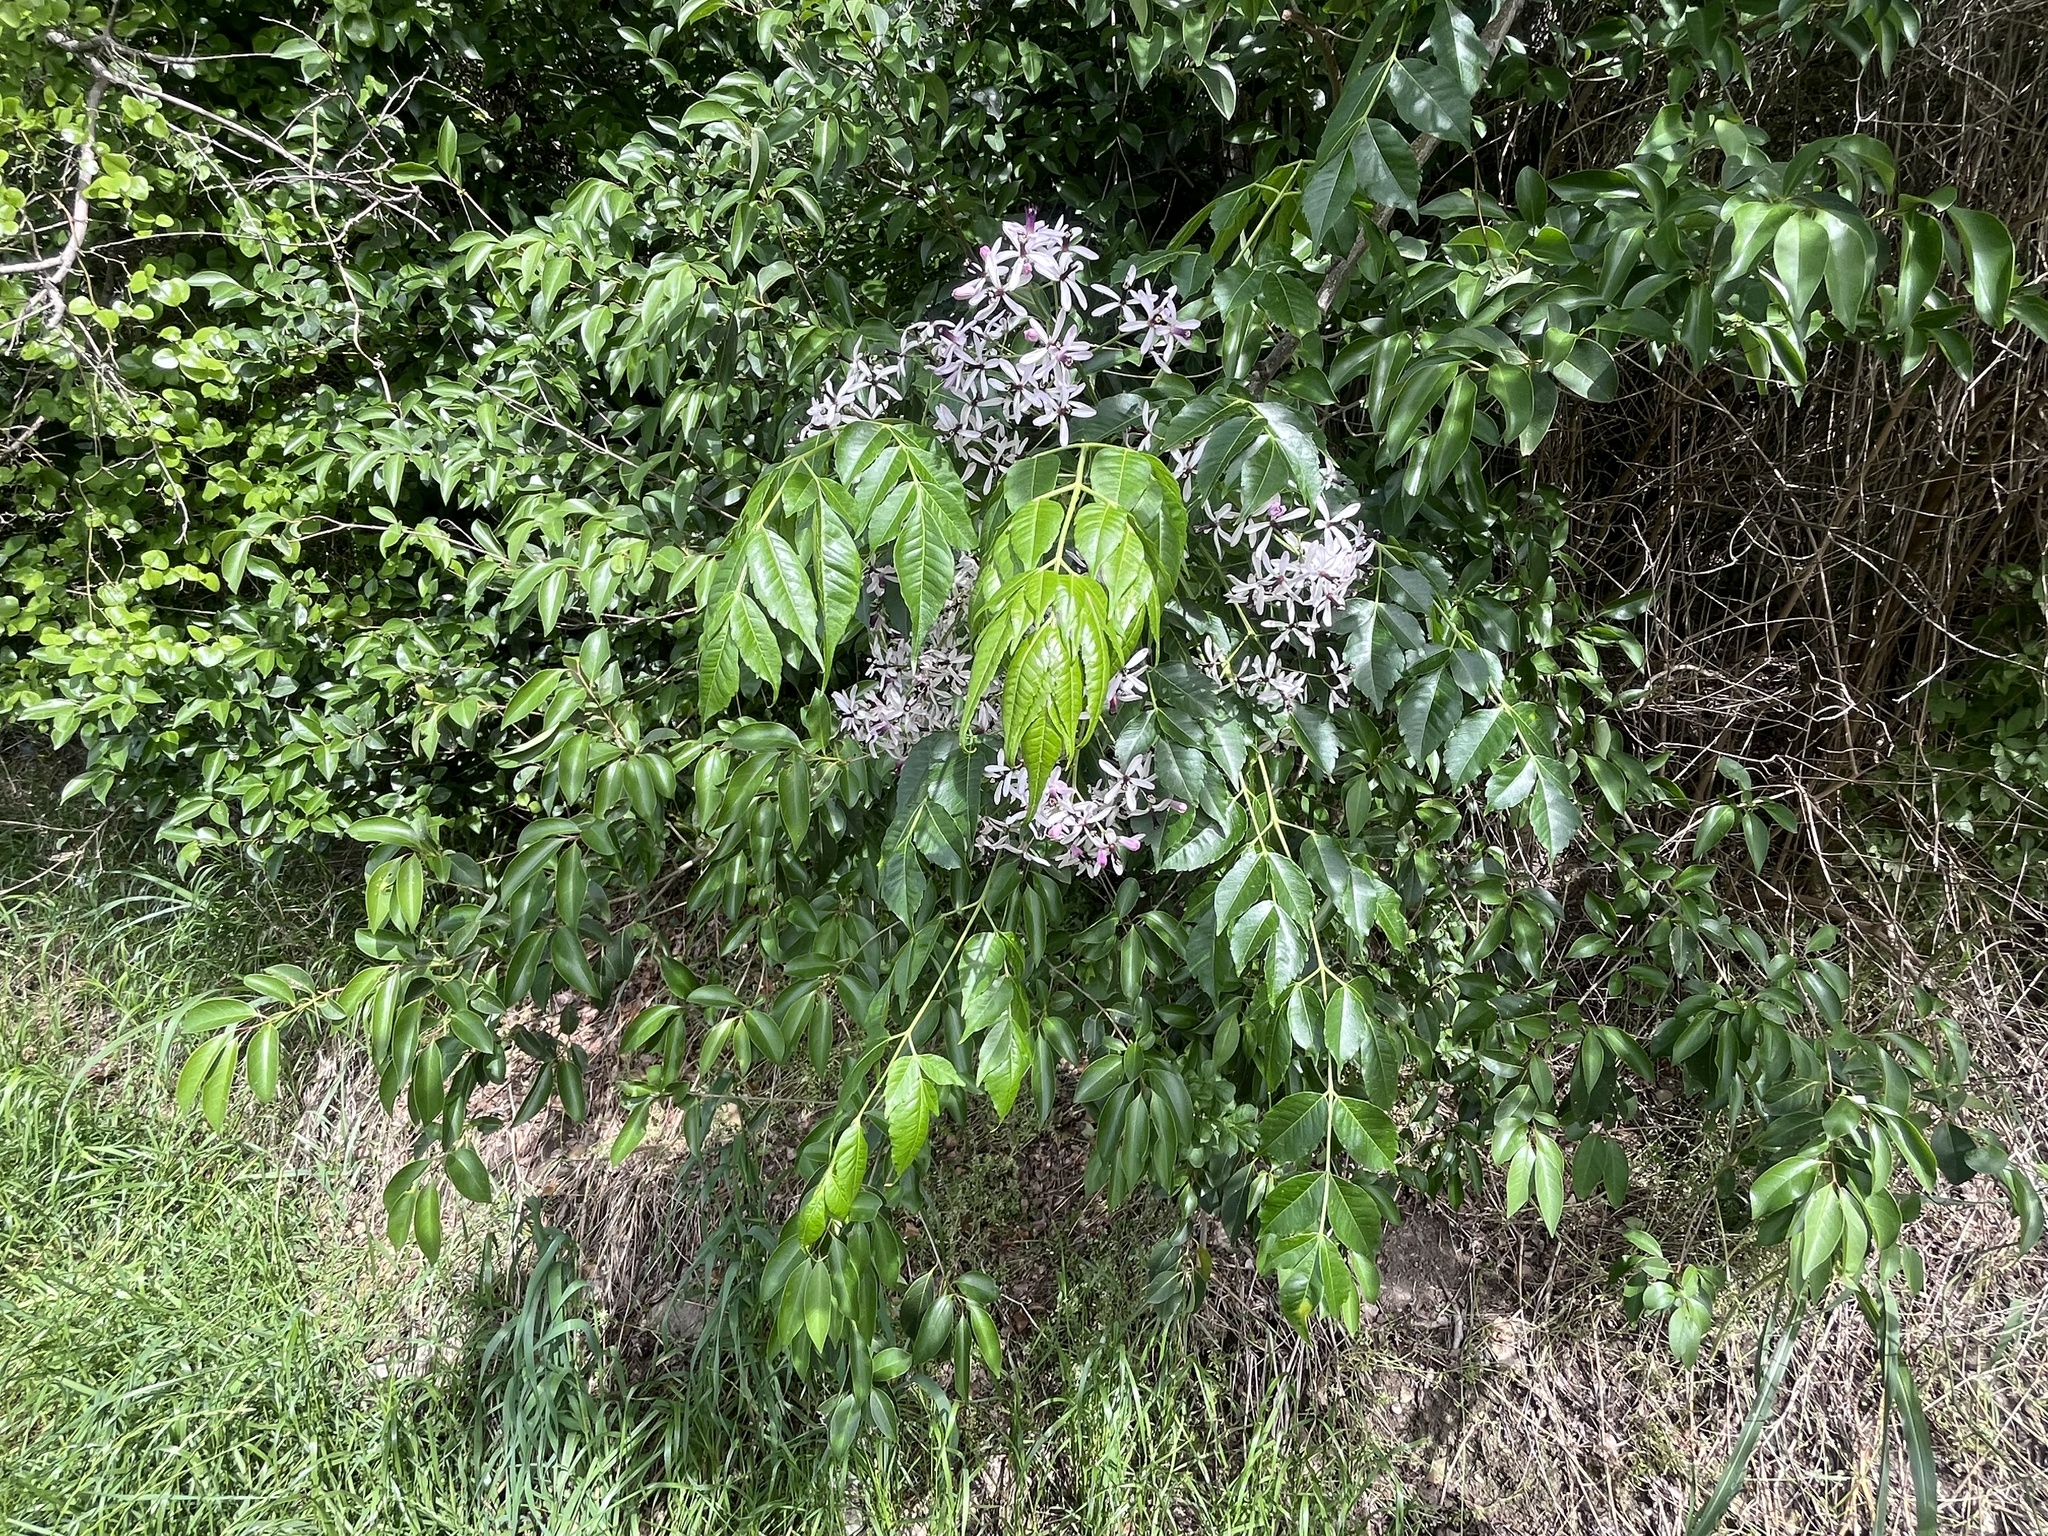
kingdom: Plantae
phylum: Tracheophyta
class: Magnoliopsida
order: Sapindales
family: Meliaceae
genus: Melia
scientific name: Melia azedarach
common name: Chinaberrytree
